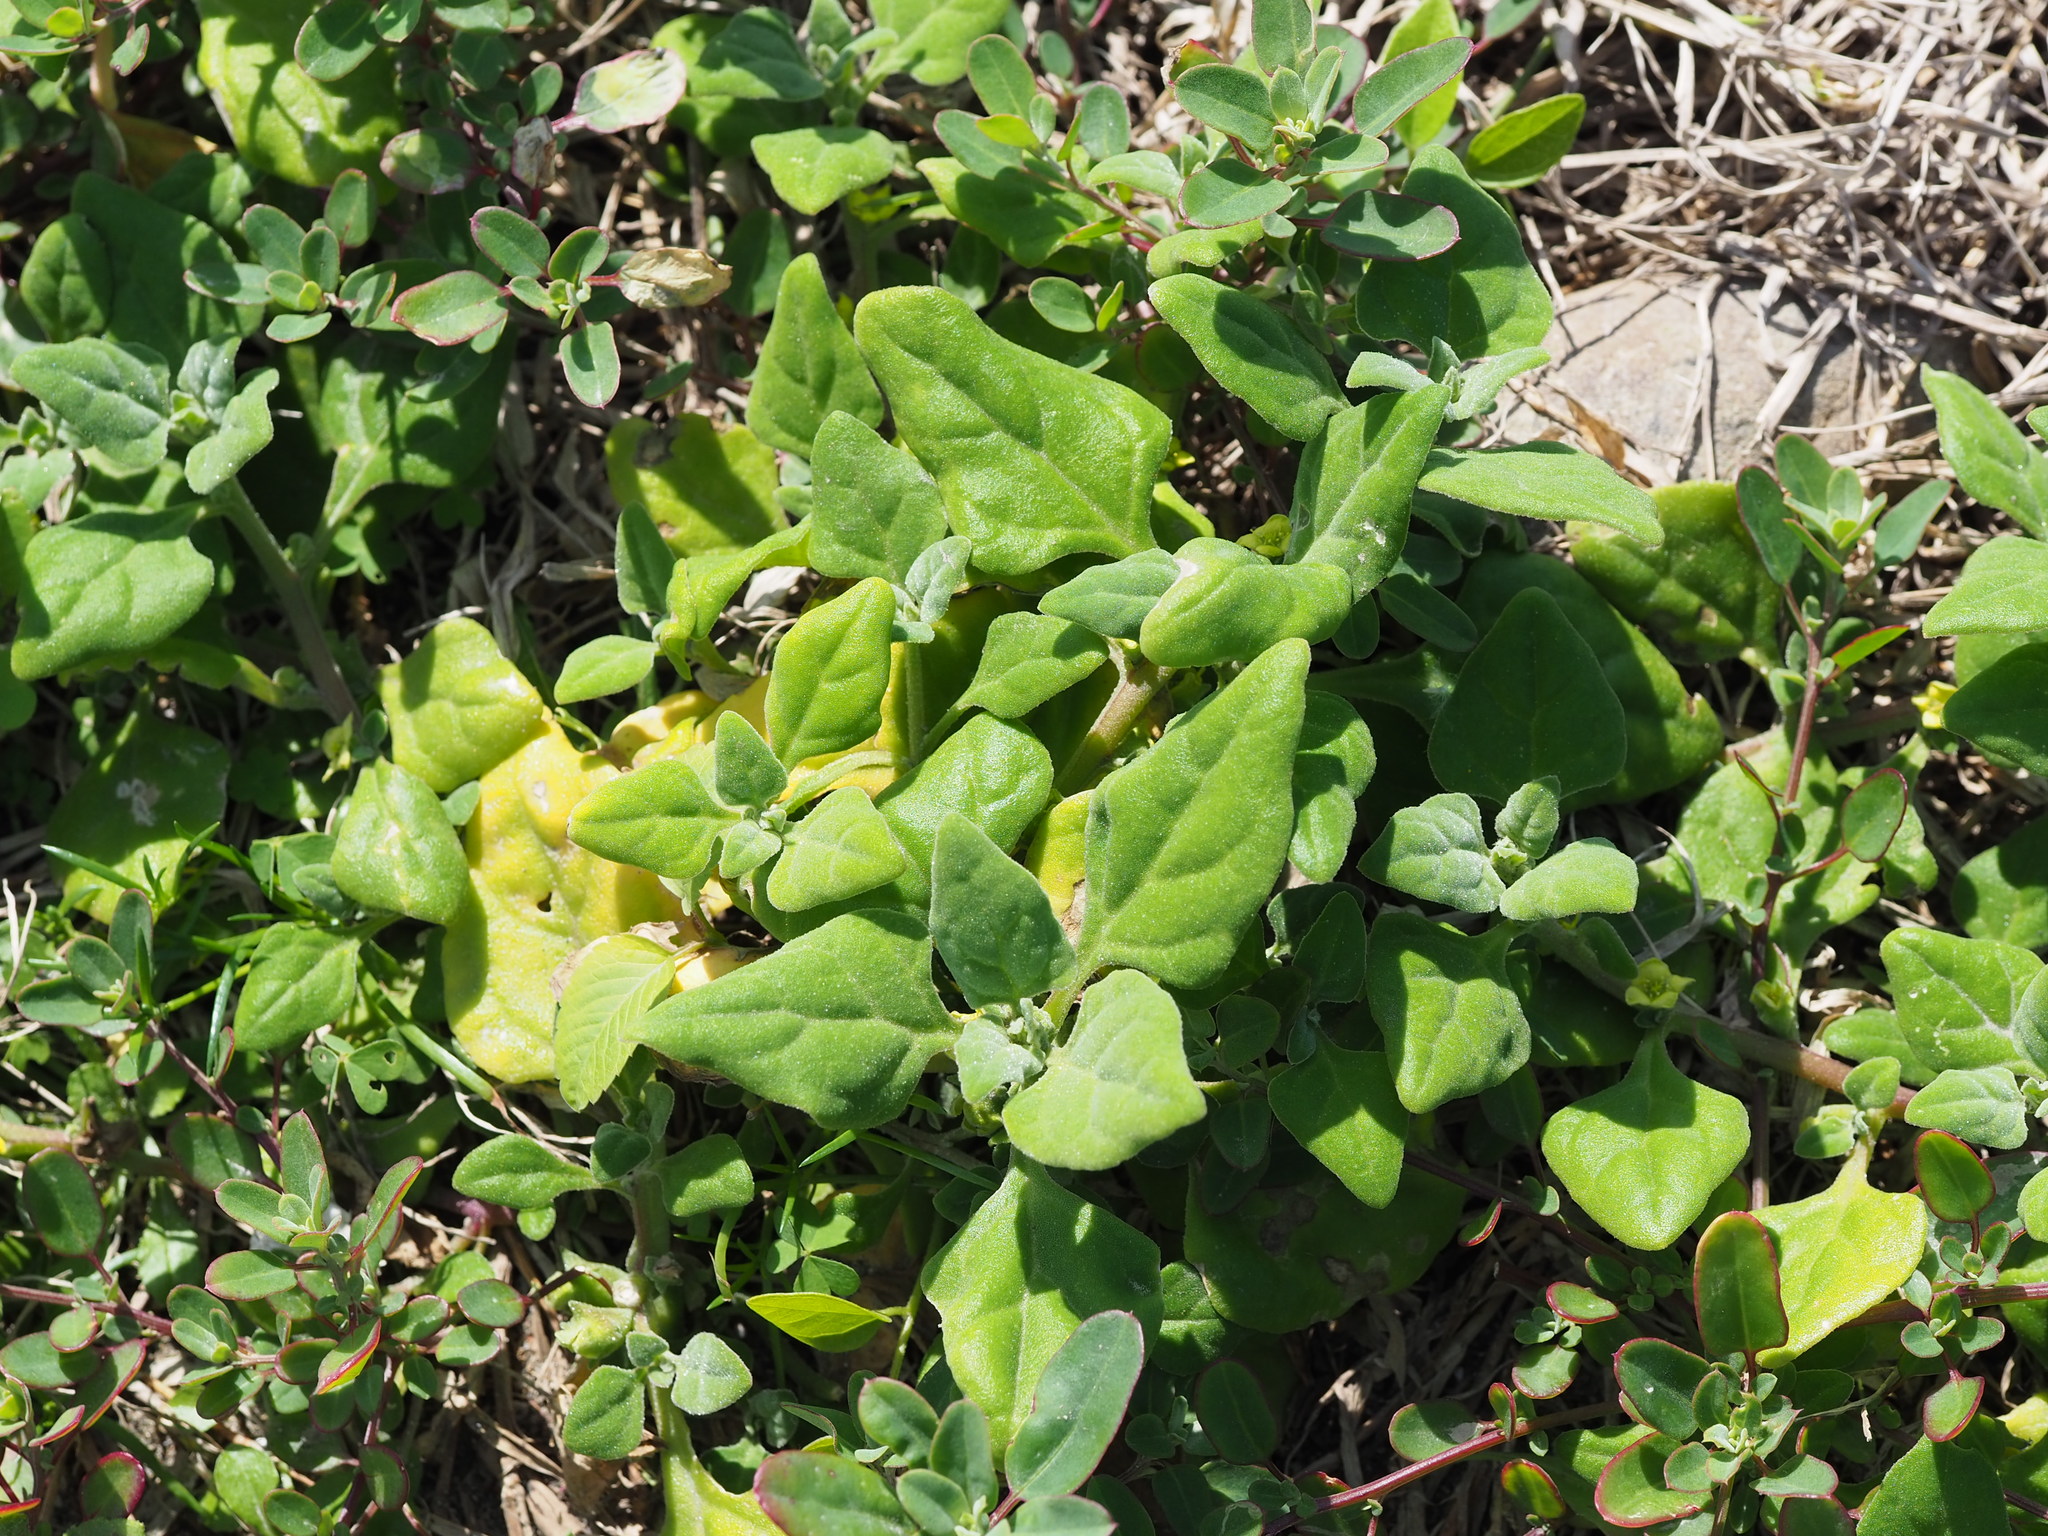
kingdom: Plantae
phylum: Tracheophyta
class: Magnoliopsida
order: Caryophyllales
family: Aizoaceae
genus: Tetragonia
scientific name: Tetragonia tetragonoides
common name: New zealand-spinach
